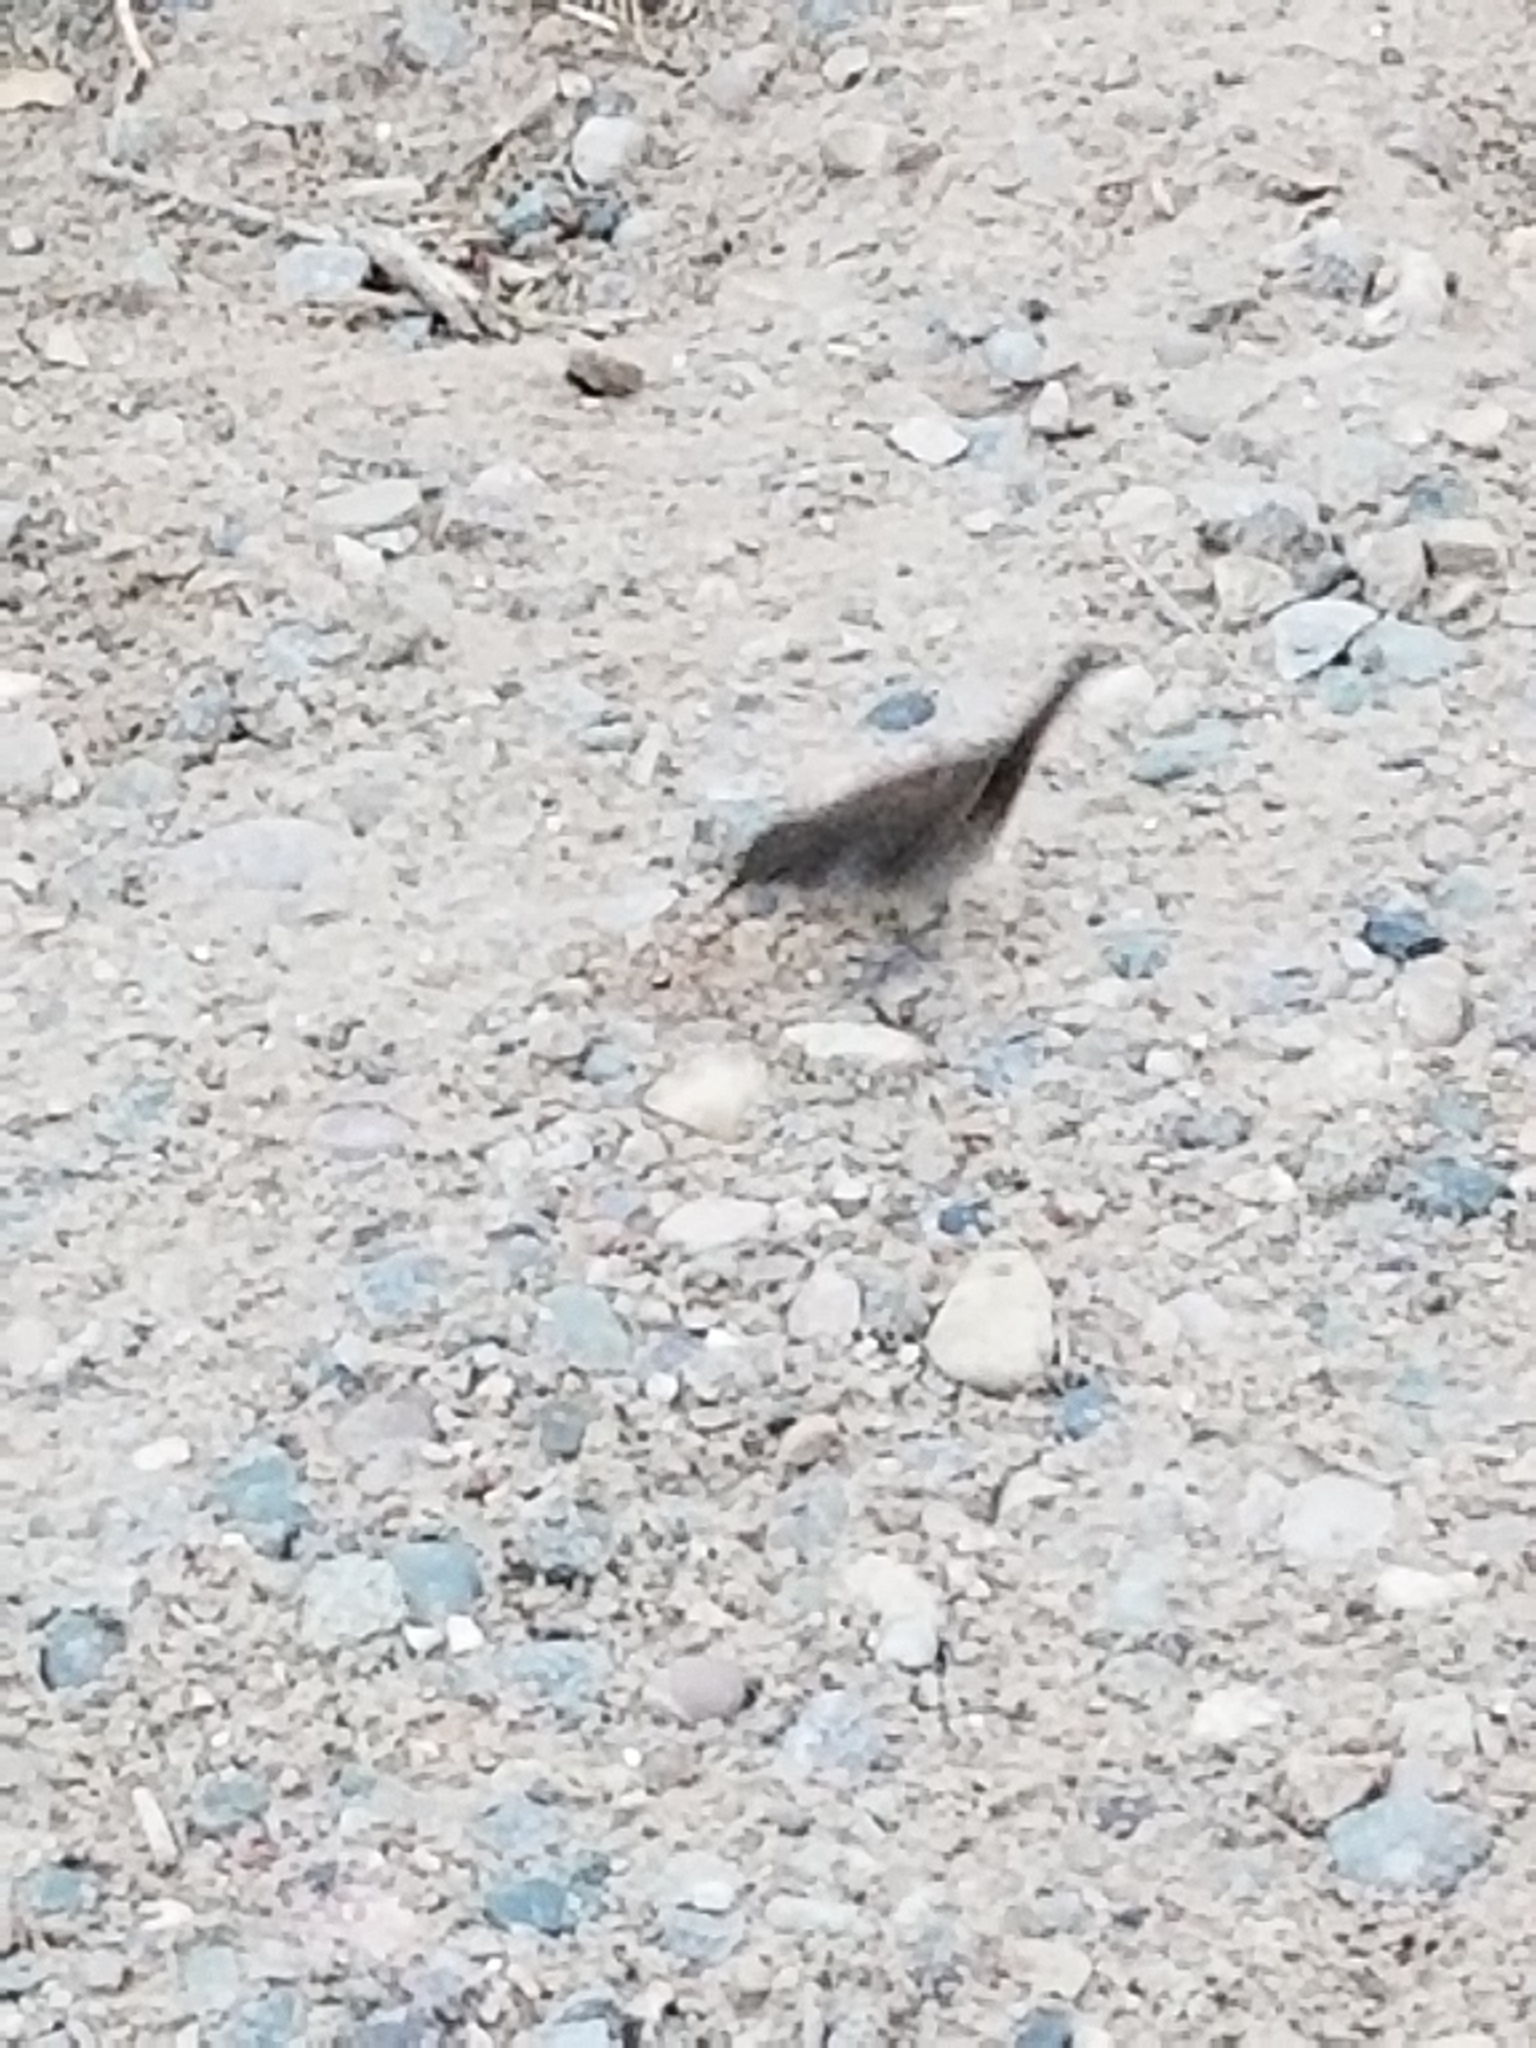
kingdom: Animalia
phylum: Chordata
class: Aves
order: Passeriformes
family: Troglodytidae
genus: Troglodytes
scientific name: Troglodytes aedon
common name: House wren
